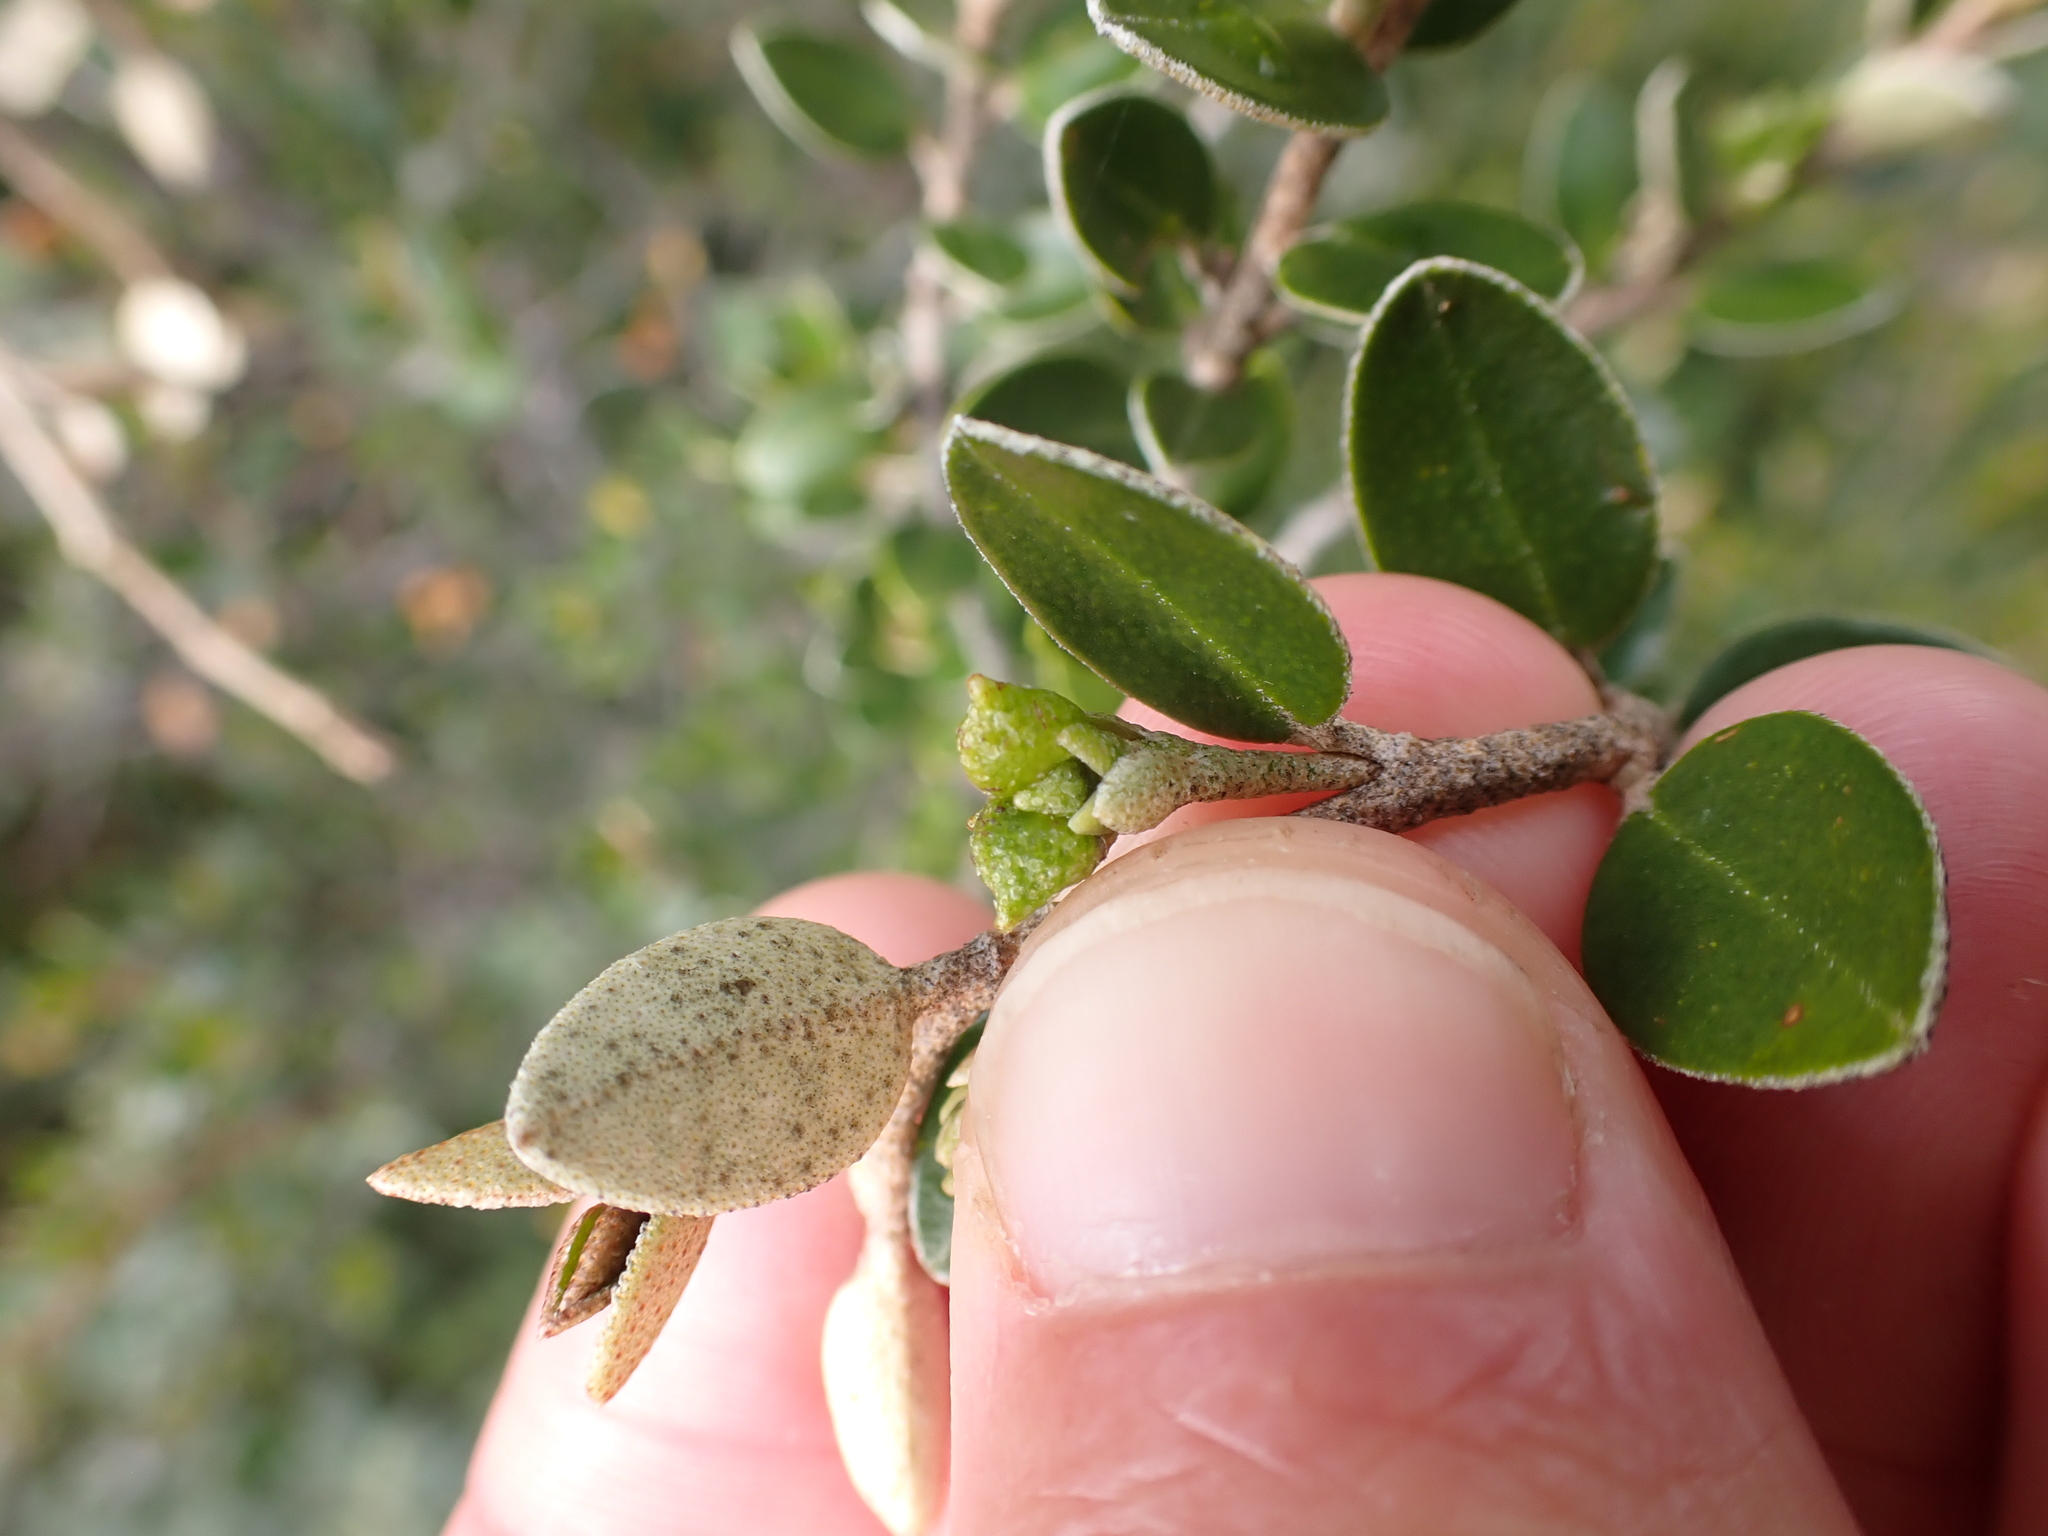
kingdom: Plantae
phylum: Tracheophyta
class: Magnoliopsida
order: Sapindales
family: Rutaceae
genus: Nematolepis
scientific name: Nematolepis ovatifolia
